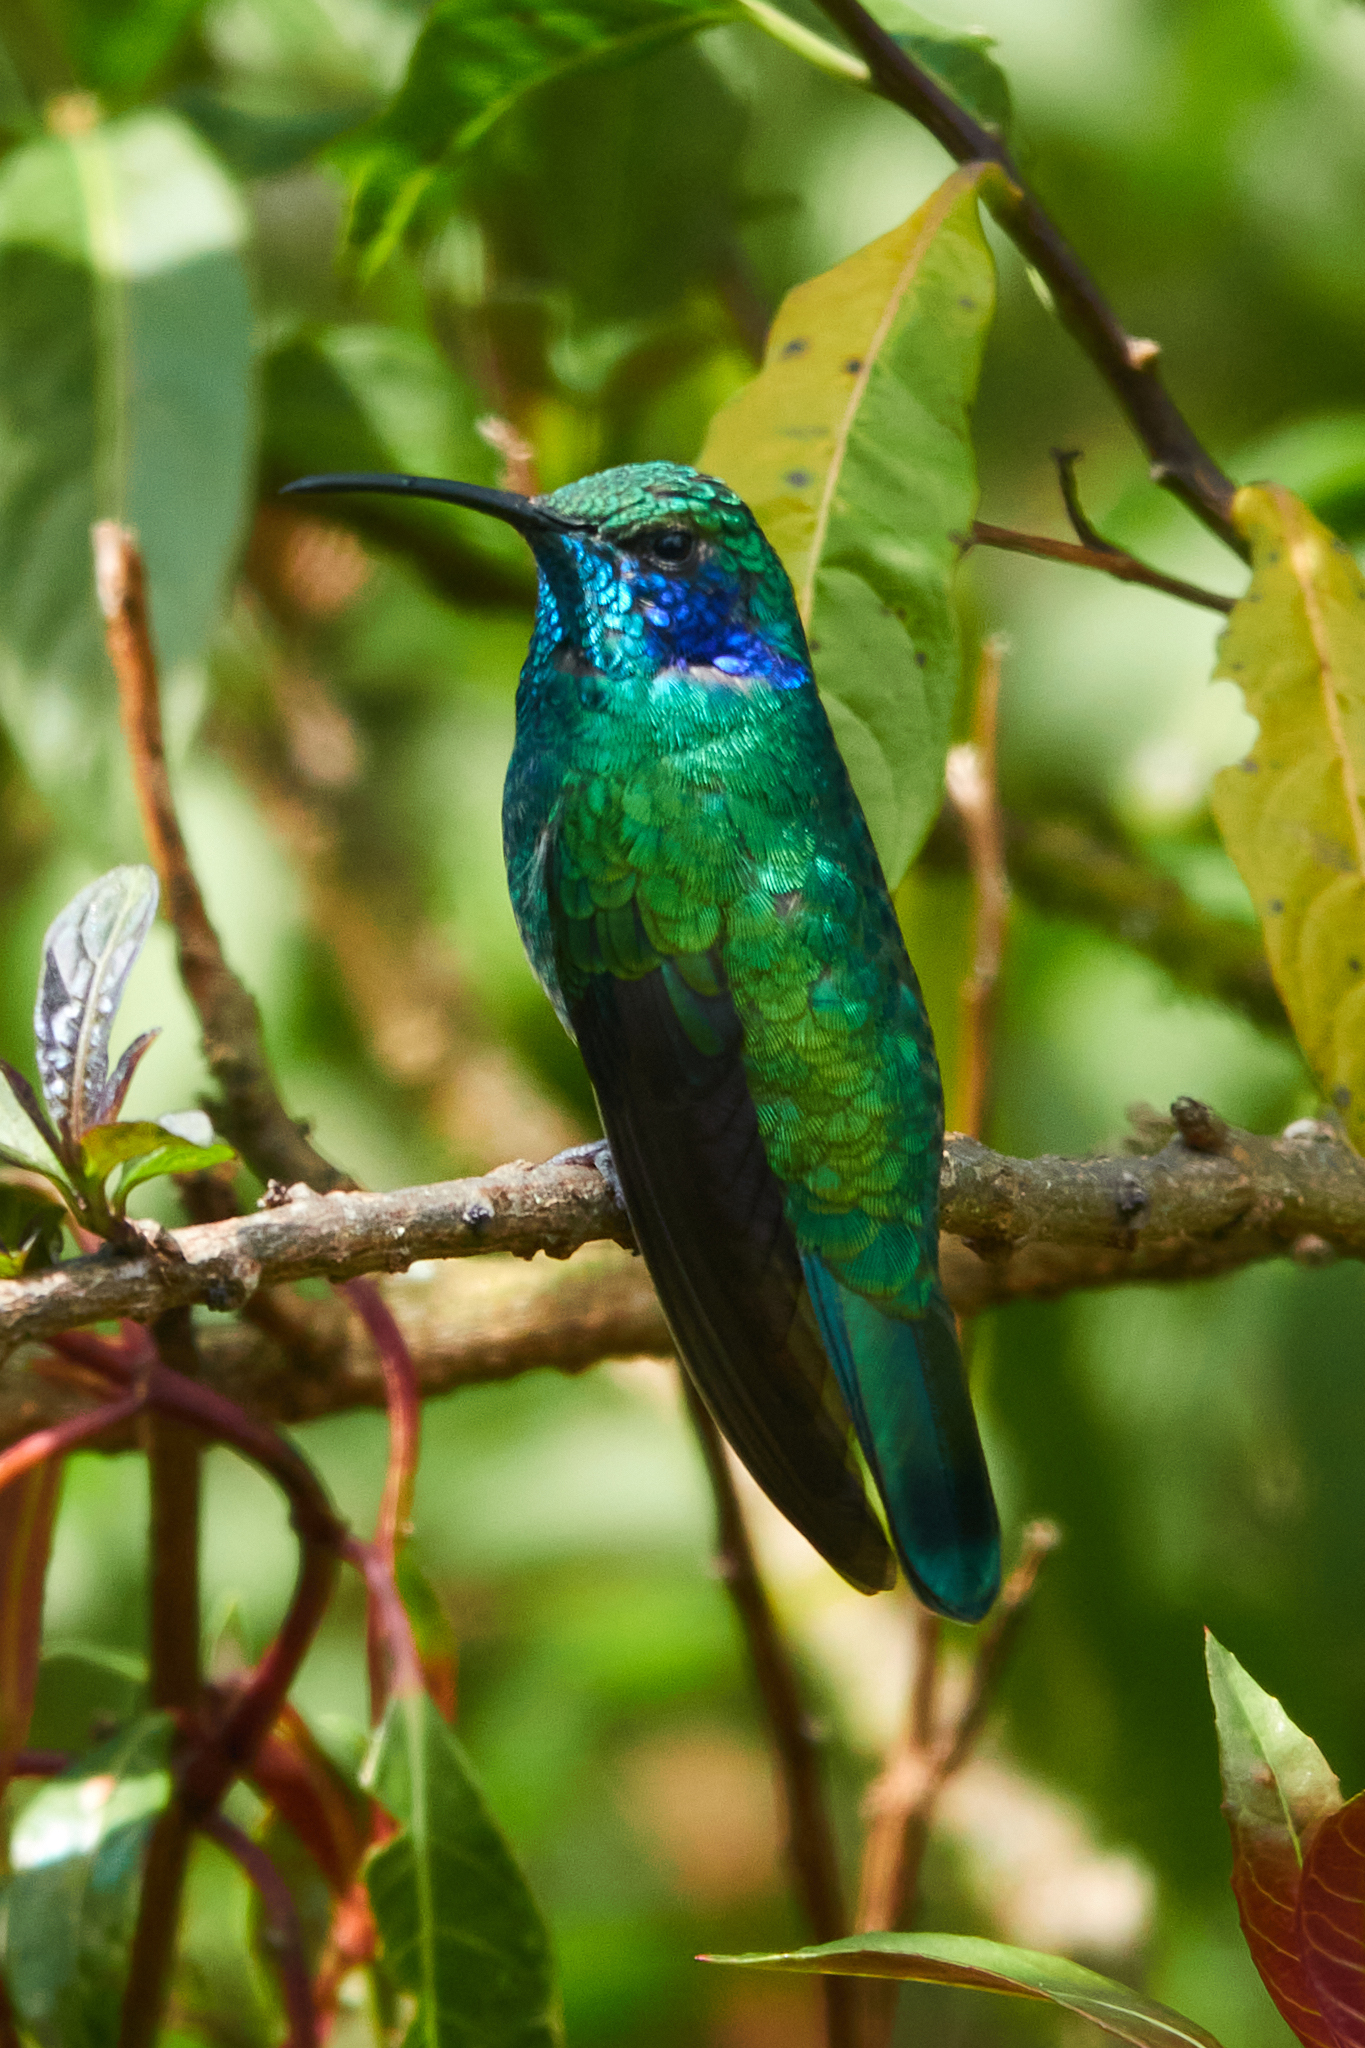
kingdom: Animalia
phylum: Chordata
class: Aves
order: Apodiformes
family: Trochilidae
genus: Colibri
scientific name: Colibri cyanotus
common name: Lesser violetear
